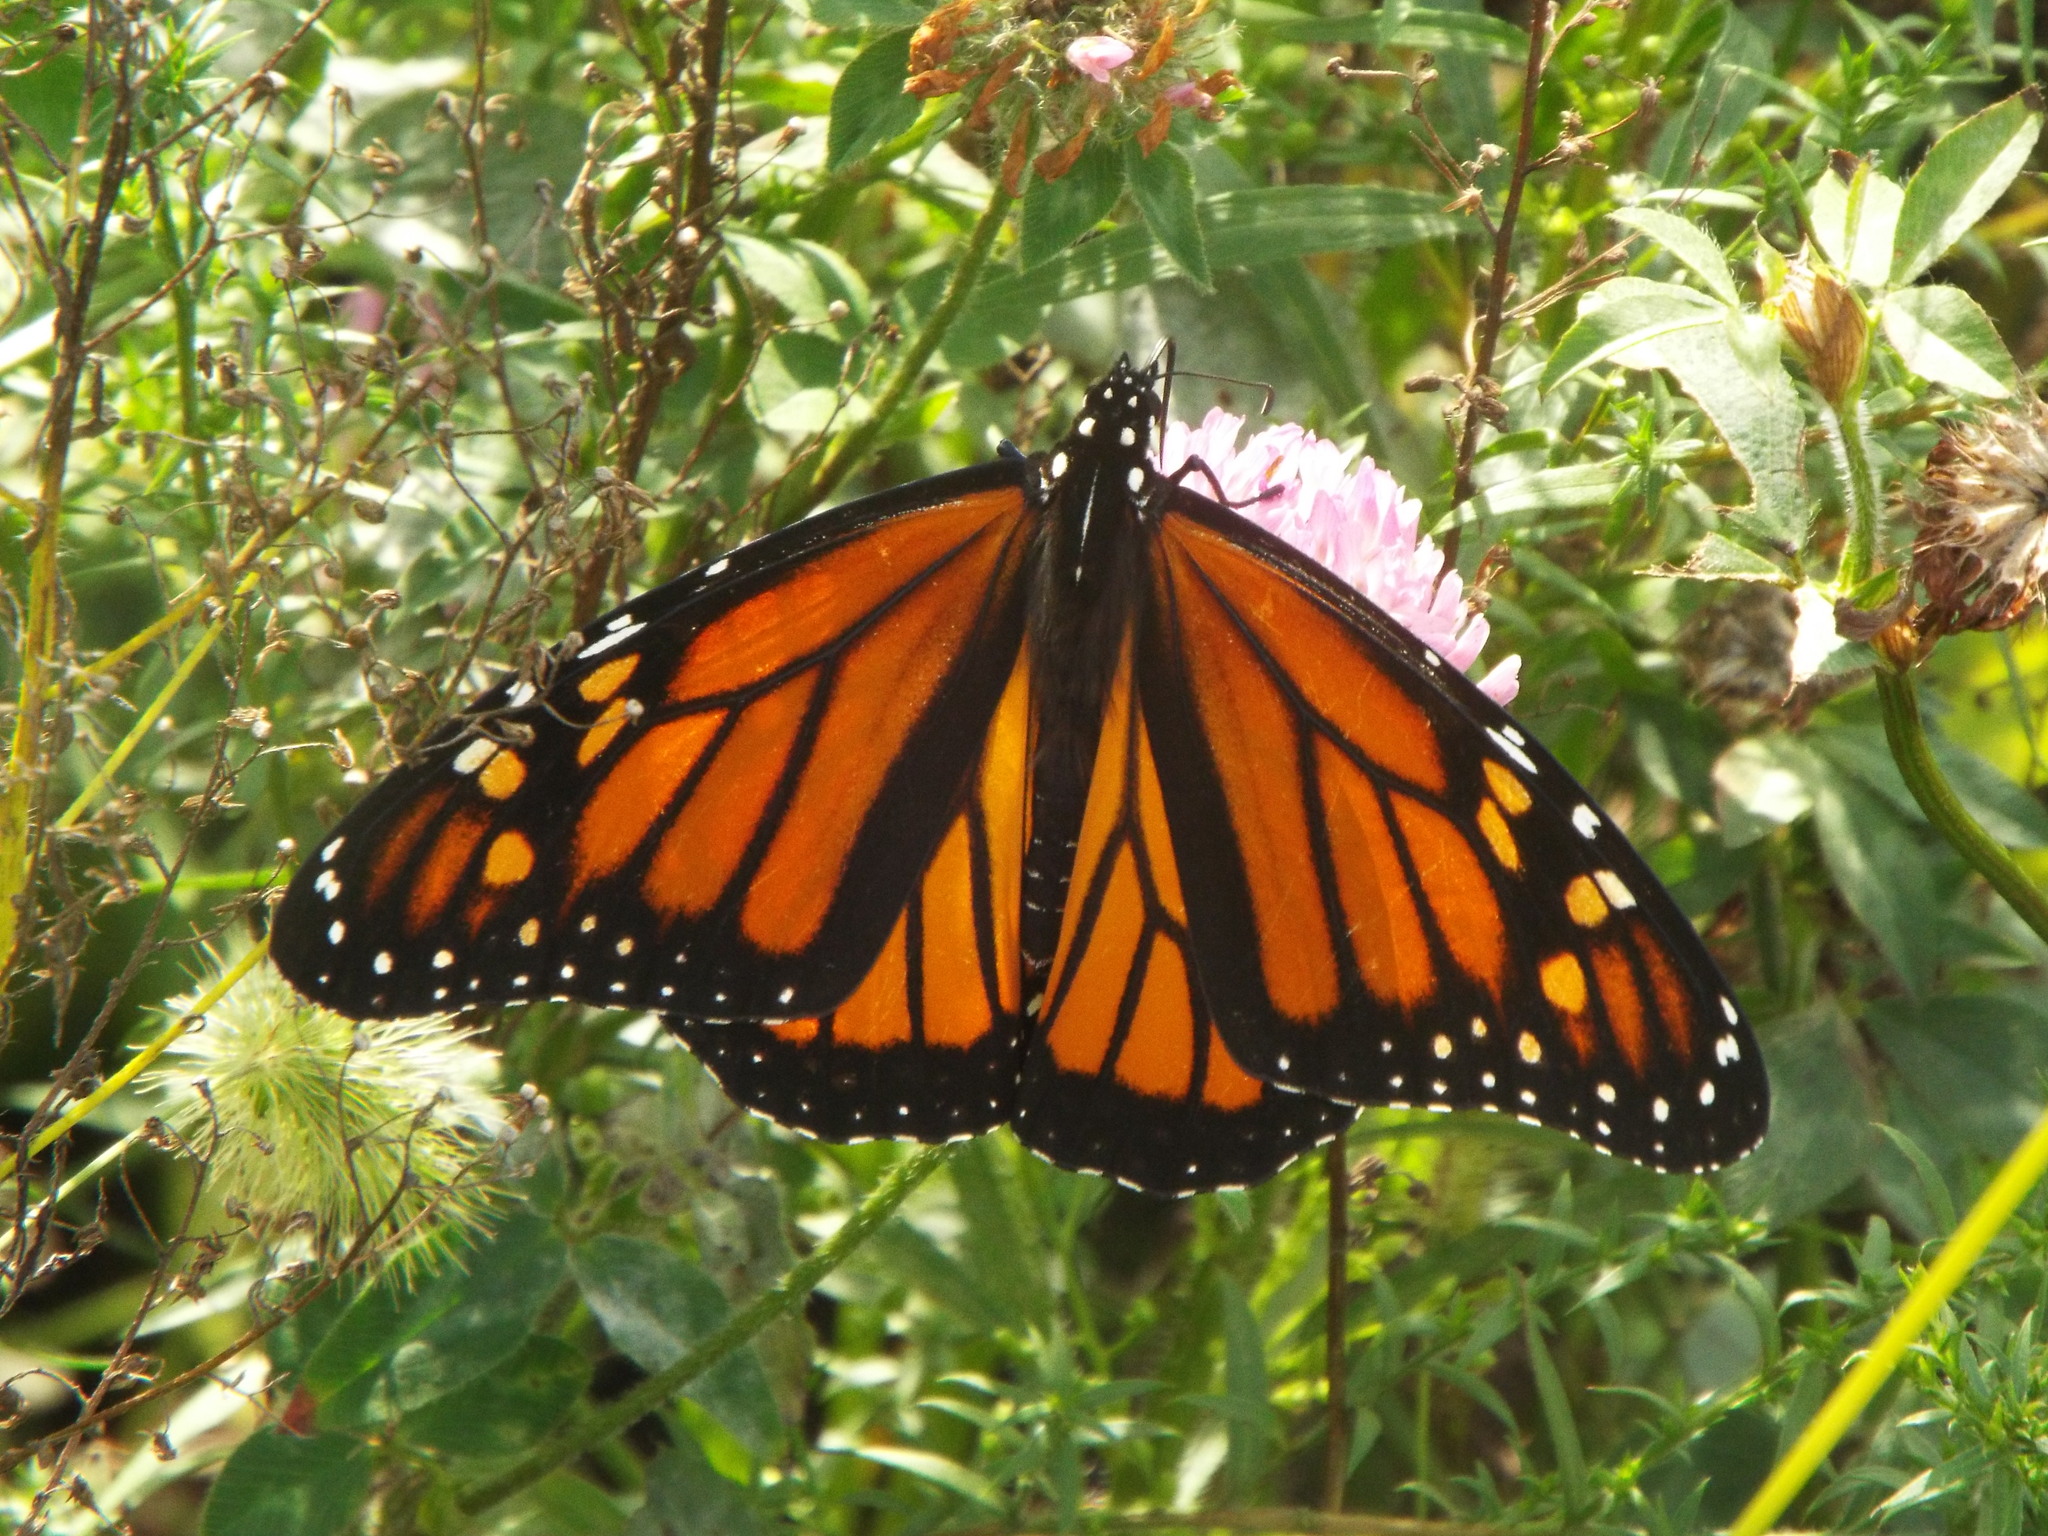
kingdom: Animalia
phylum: Arthropoda
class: Insecta
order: Lepidoptera
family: Nymphalidae
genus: Danaus
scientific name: Danaus plexippus
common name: Monarch
